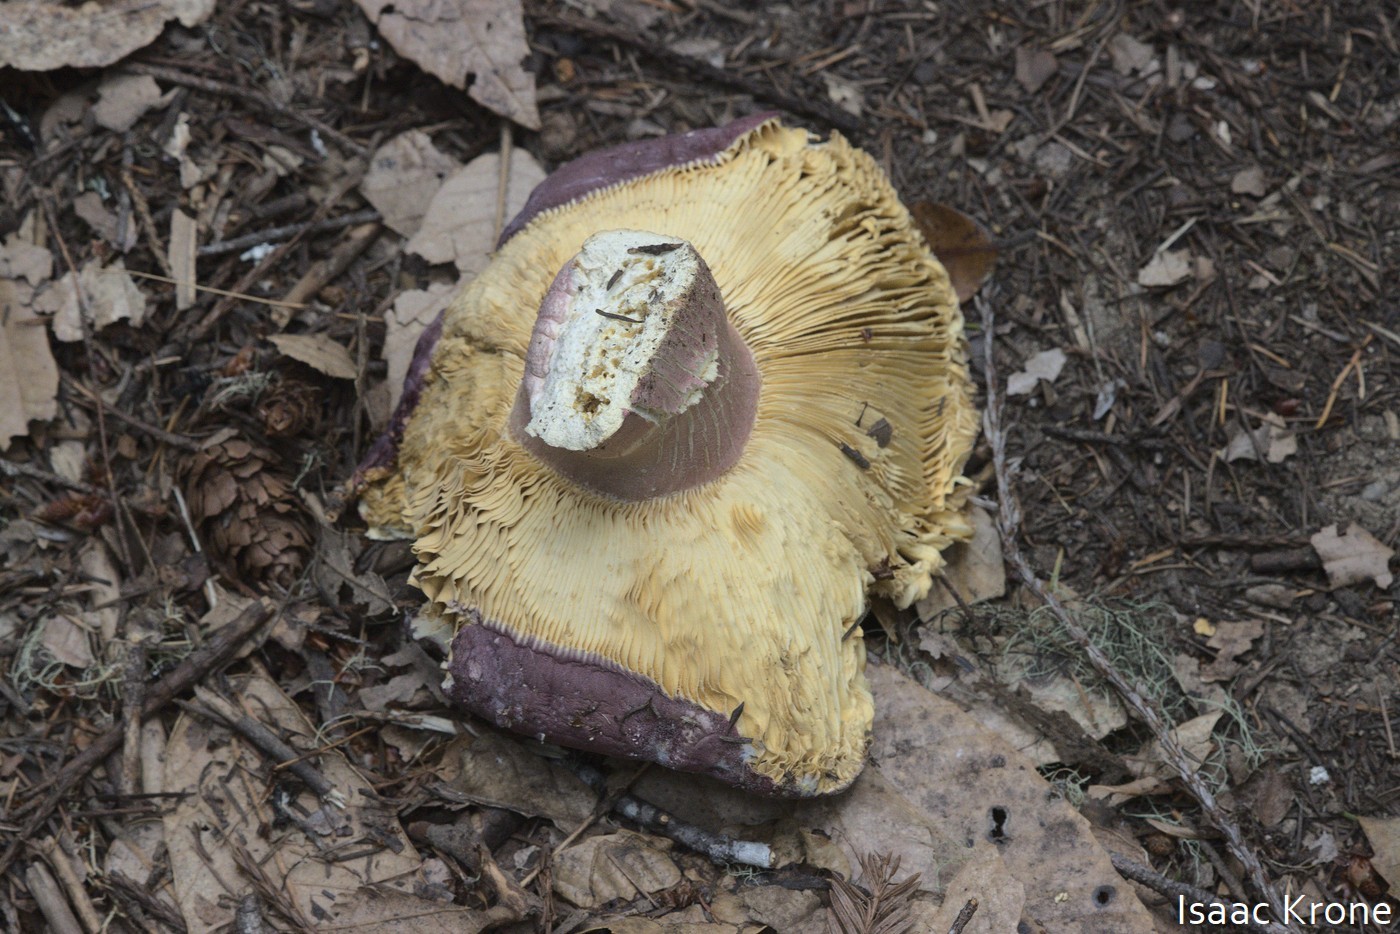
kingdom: Fungi
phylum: Basidiomycota
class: Agaricomycetes
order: Russulales
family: Russulaceae
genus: Russula
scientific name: Russula xerampelina
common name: Crab brittlegill
